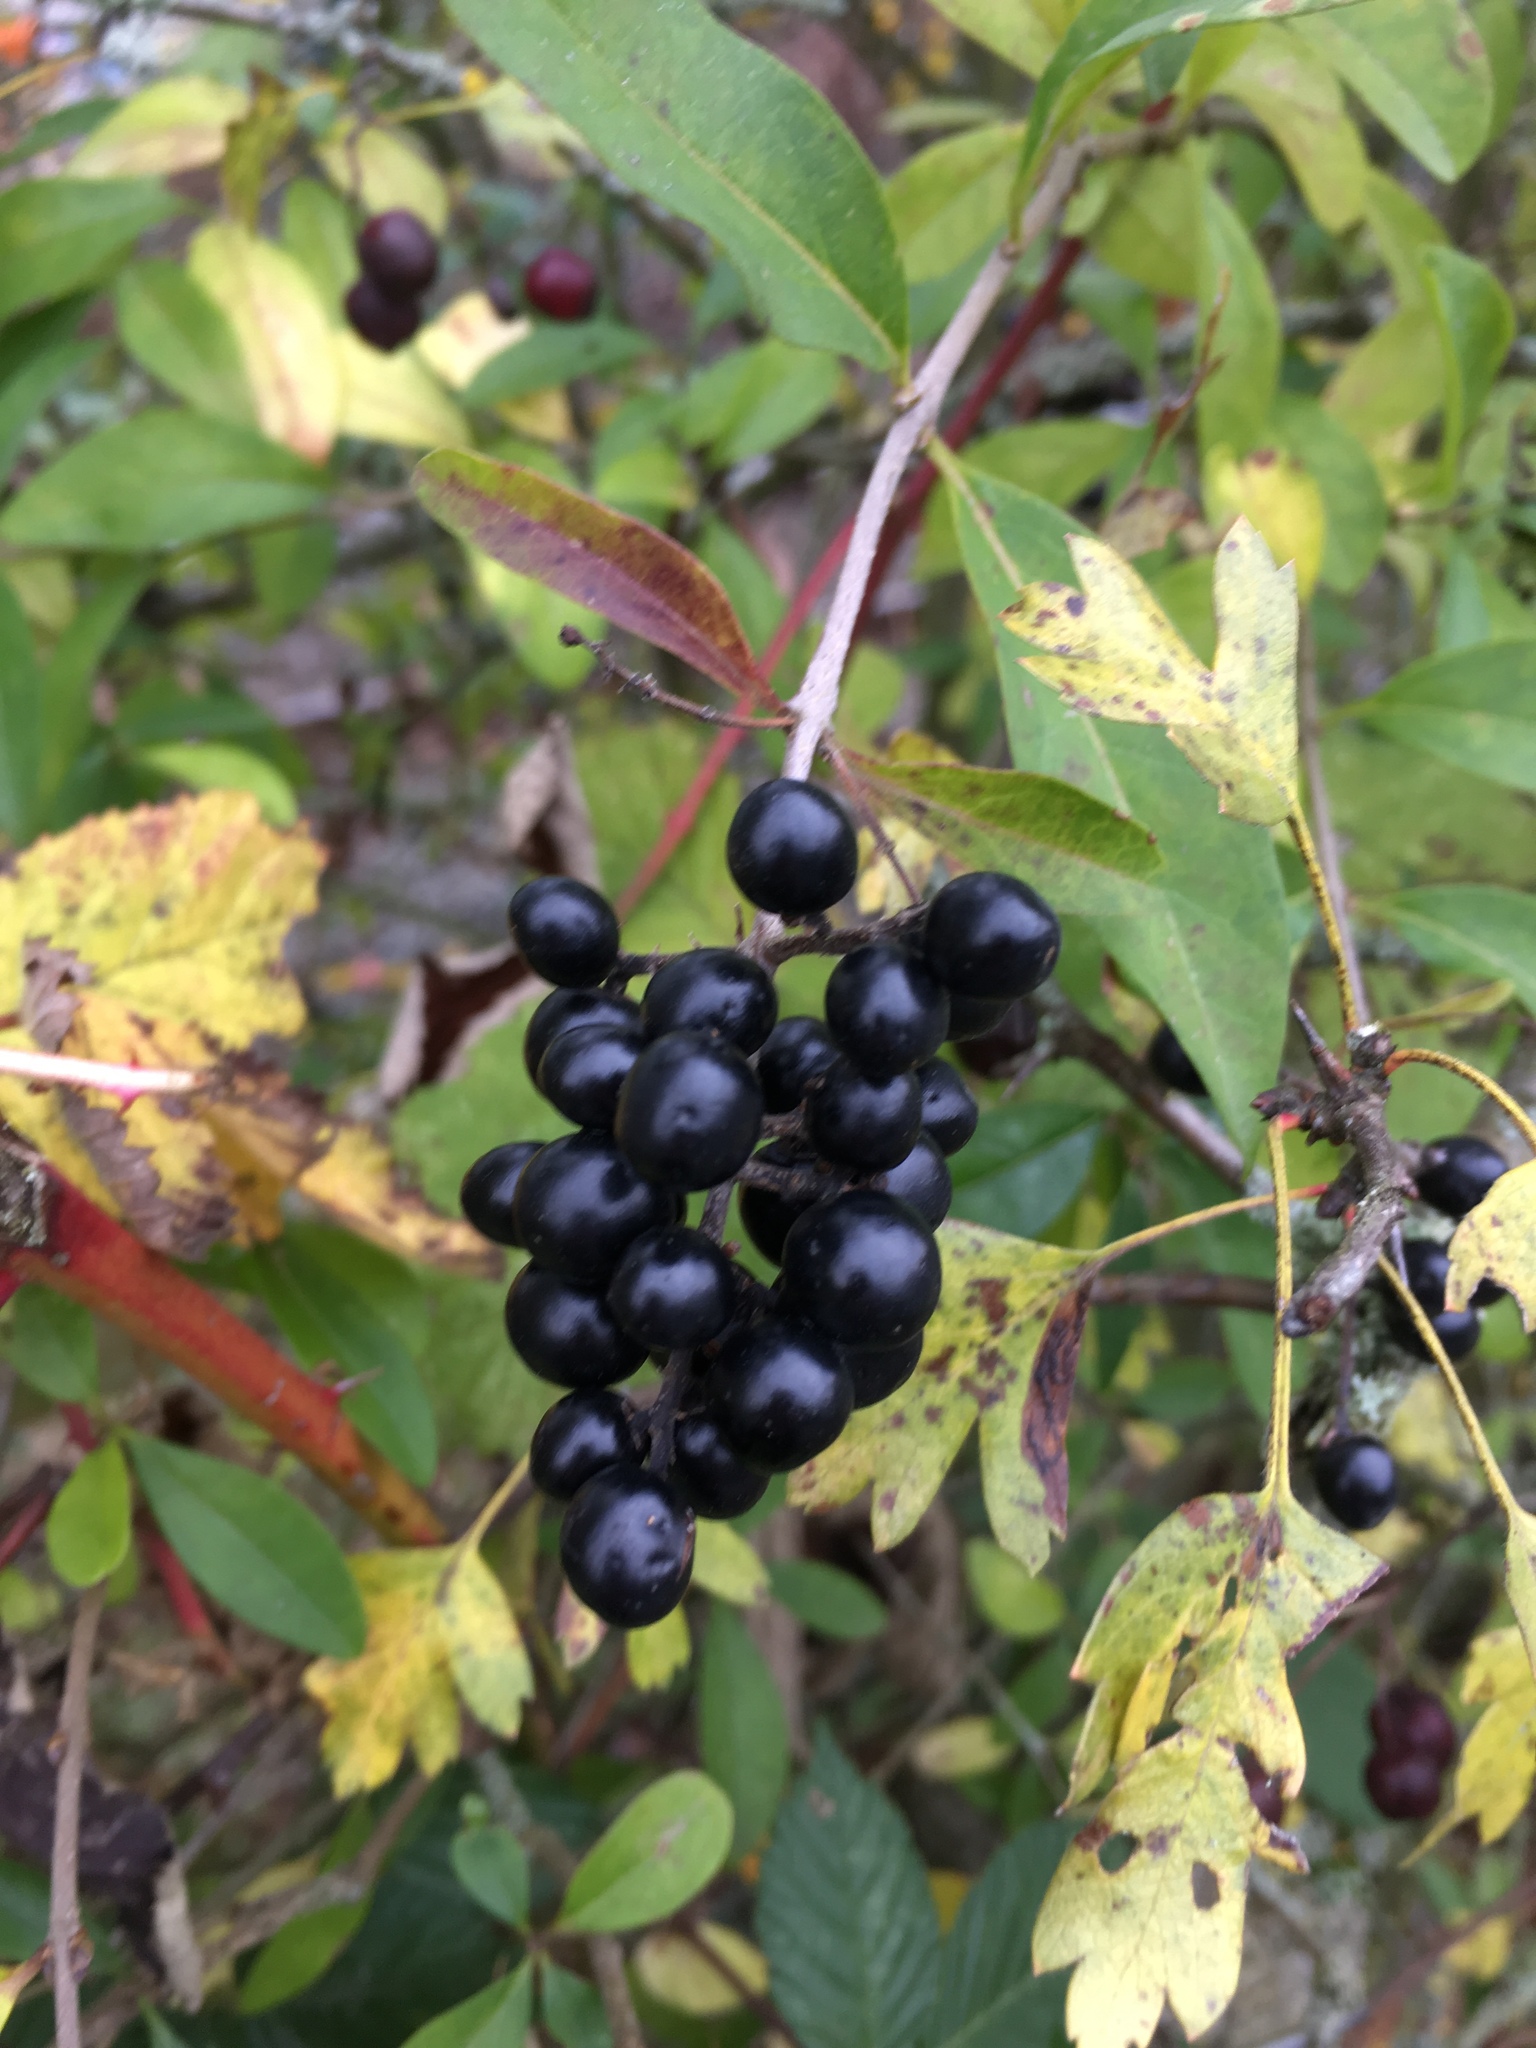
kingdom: Plantae
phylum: Tracheophyta
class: Magnoliopsida
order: Lamiales
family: Oleaceae
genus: Ligustrum
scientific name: Ligustrum vulgare
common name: Wild privet
